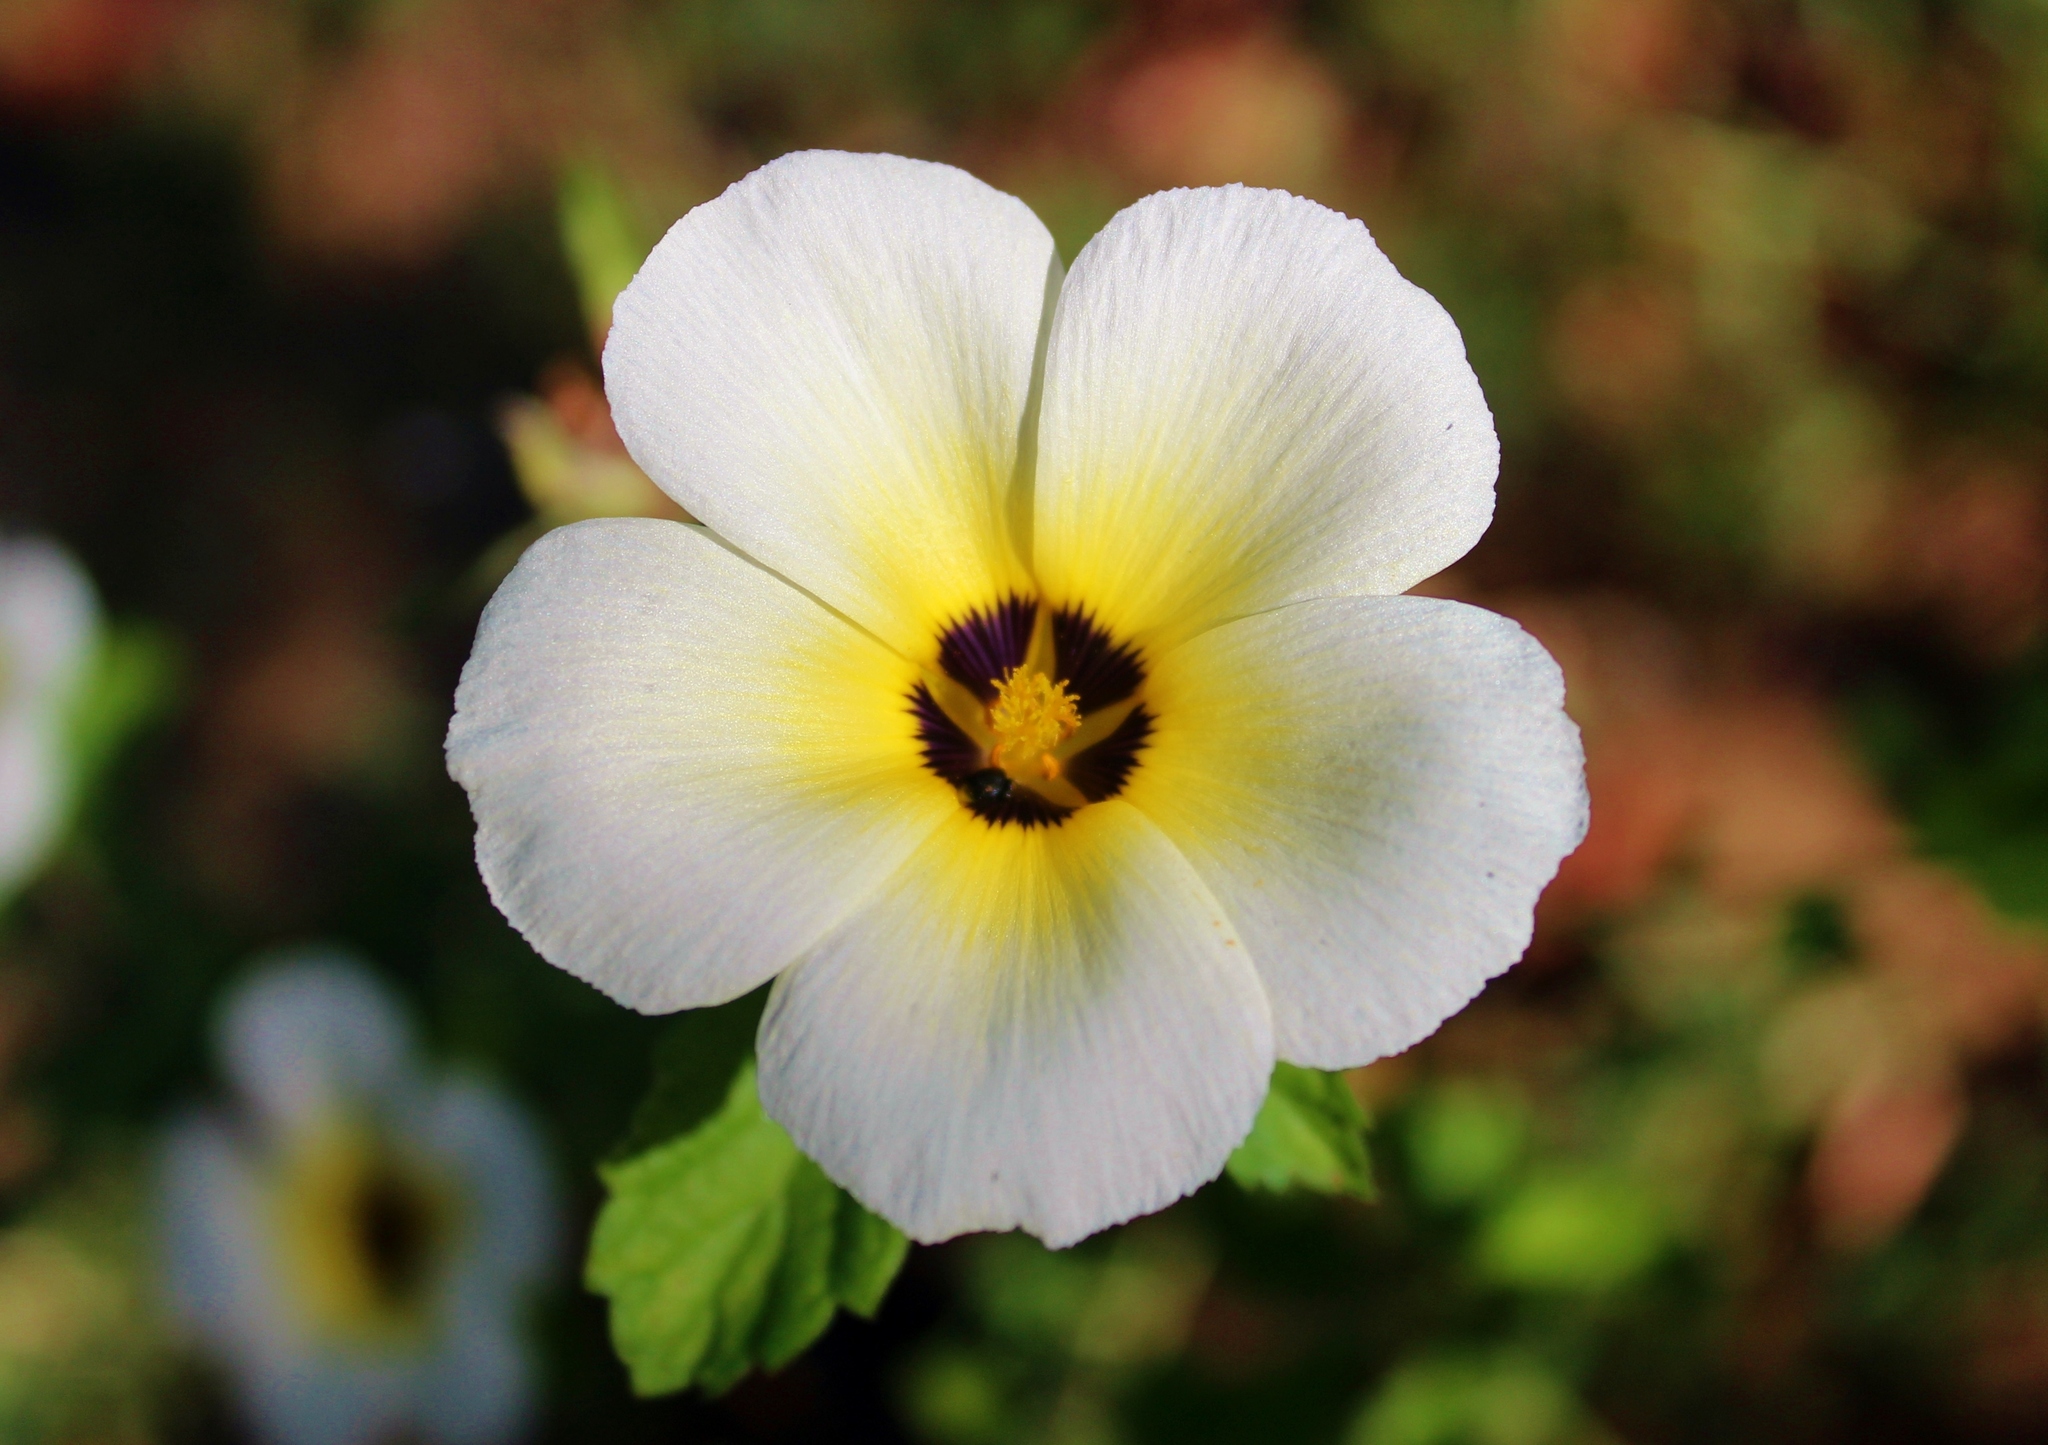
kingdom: Plantae
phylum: Tracheophyta
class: Magnoliopsida
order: Malpighiales
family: Turneraceae
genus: Turnera
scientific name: Turnera subulata
